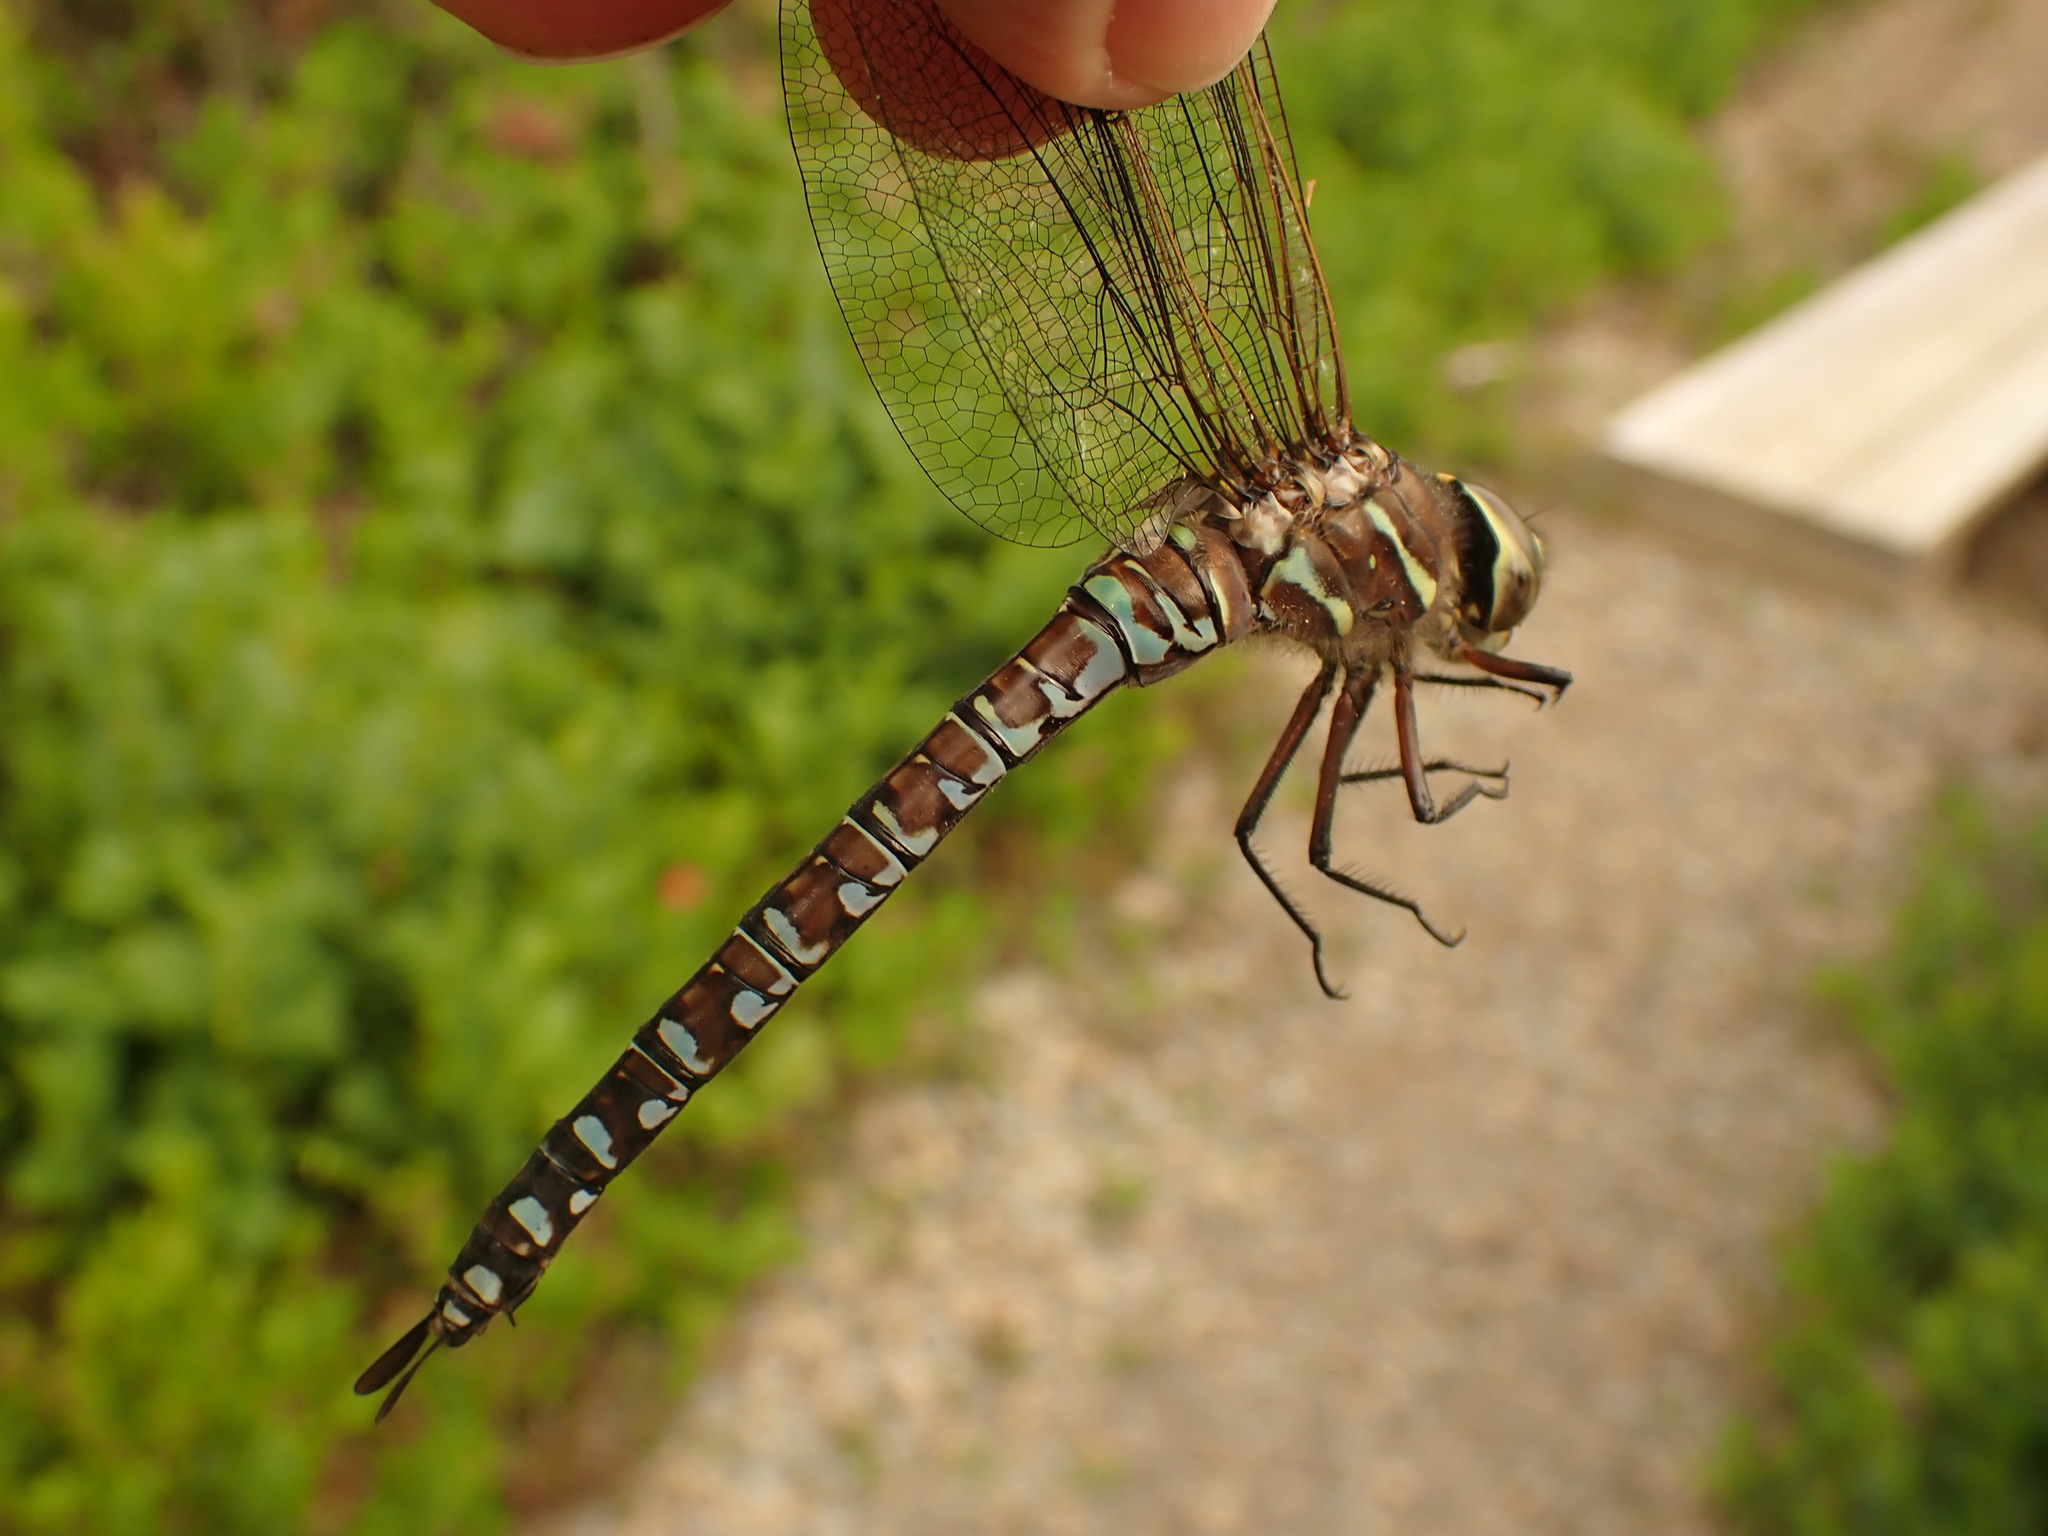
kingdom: Animalia
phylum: Arthropoda
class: Insecta
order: Odonata
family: Aeshnidae
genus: Aeshna
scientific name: Aeshna interrupta
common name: Variable darner
